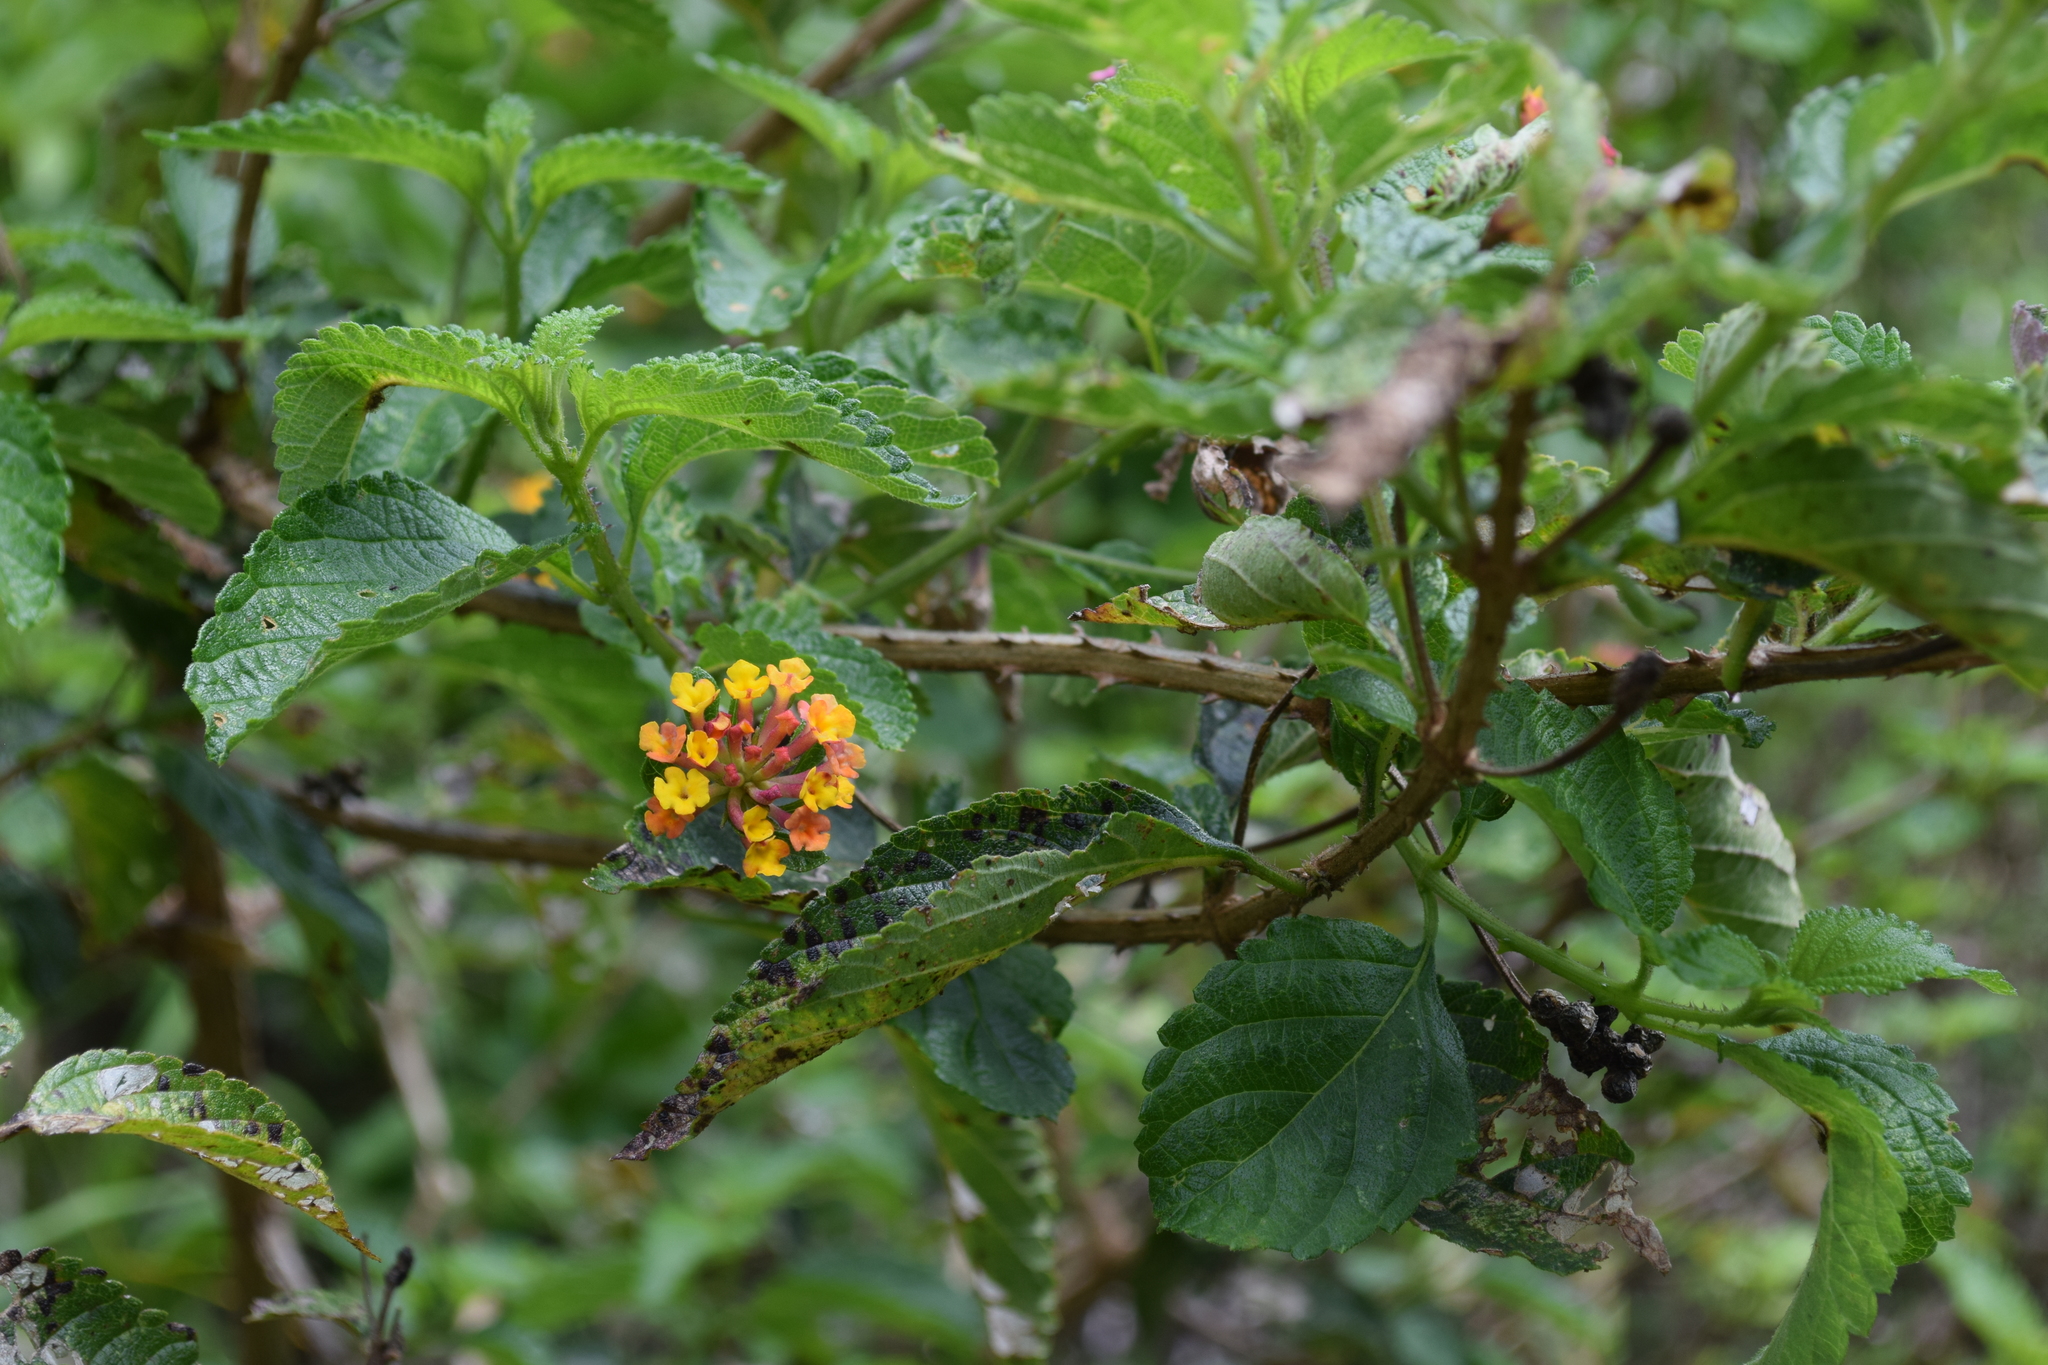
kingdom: Plantae
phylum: Tracheophyta
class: Magnoliopsida
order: Lamiales
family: Verbenaceae
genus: Lantana
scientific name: Lantana camara
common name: Lantana
